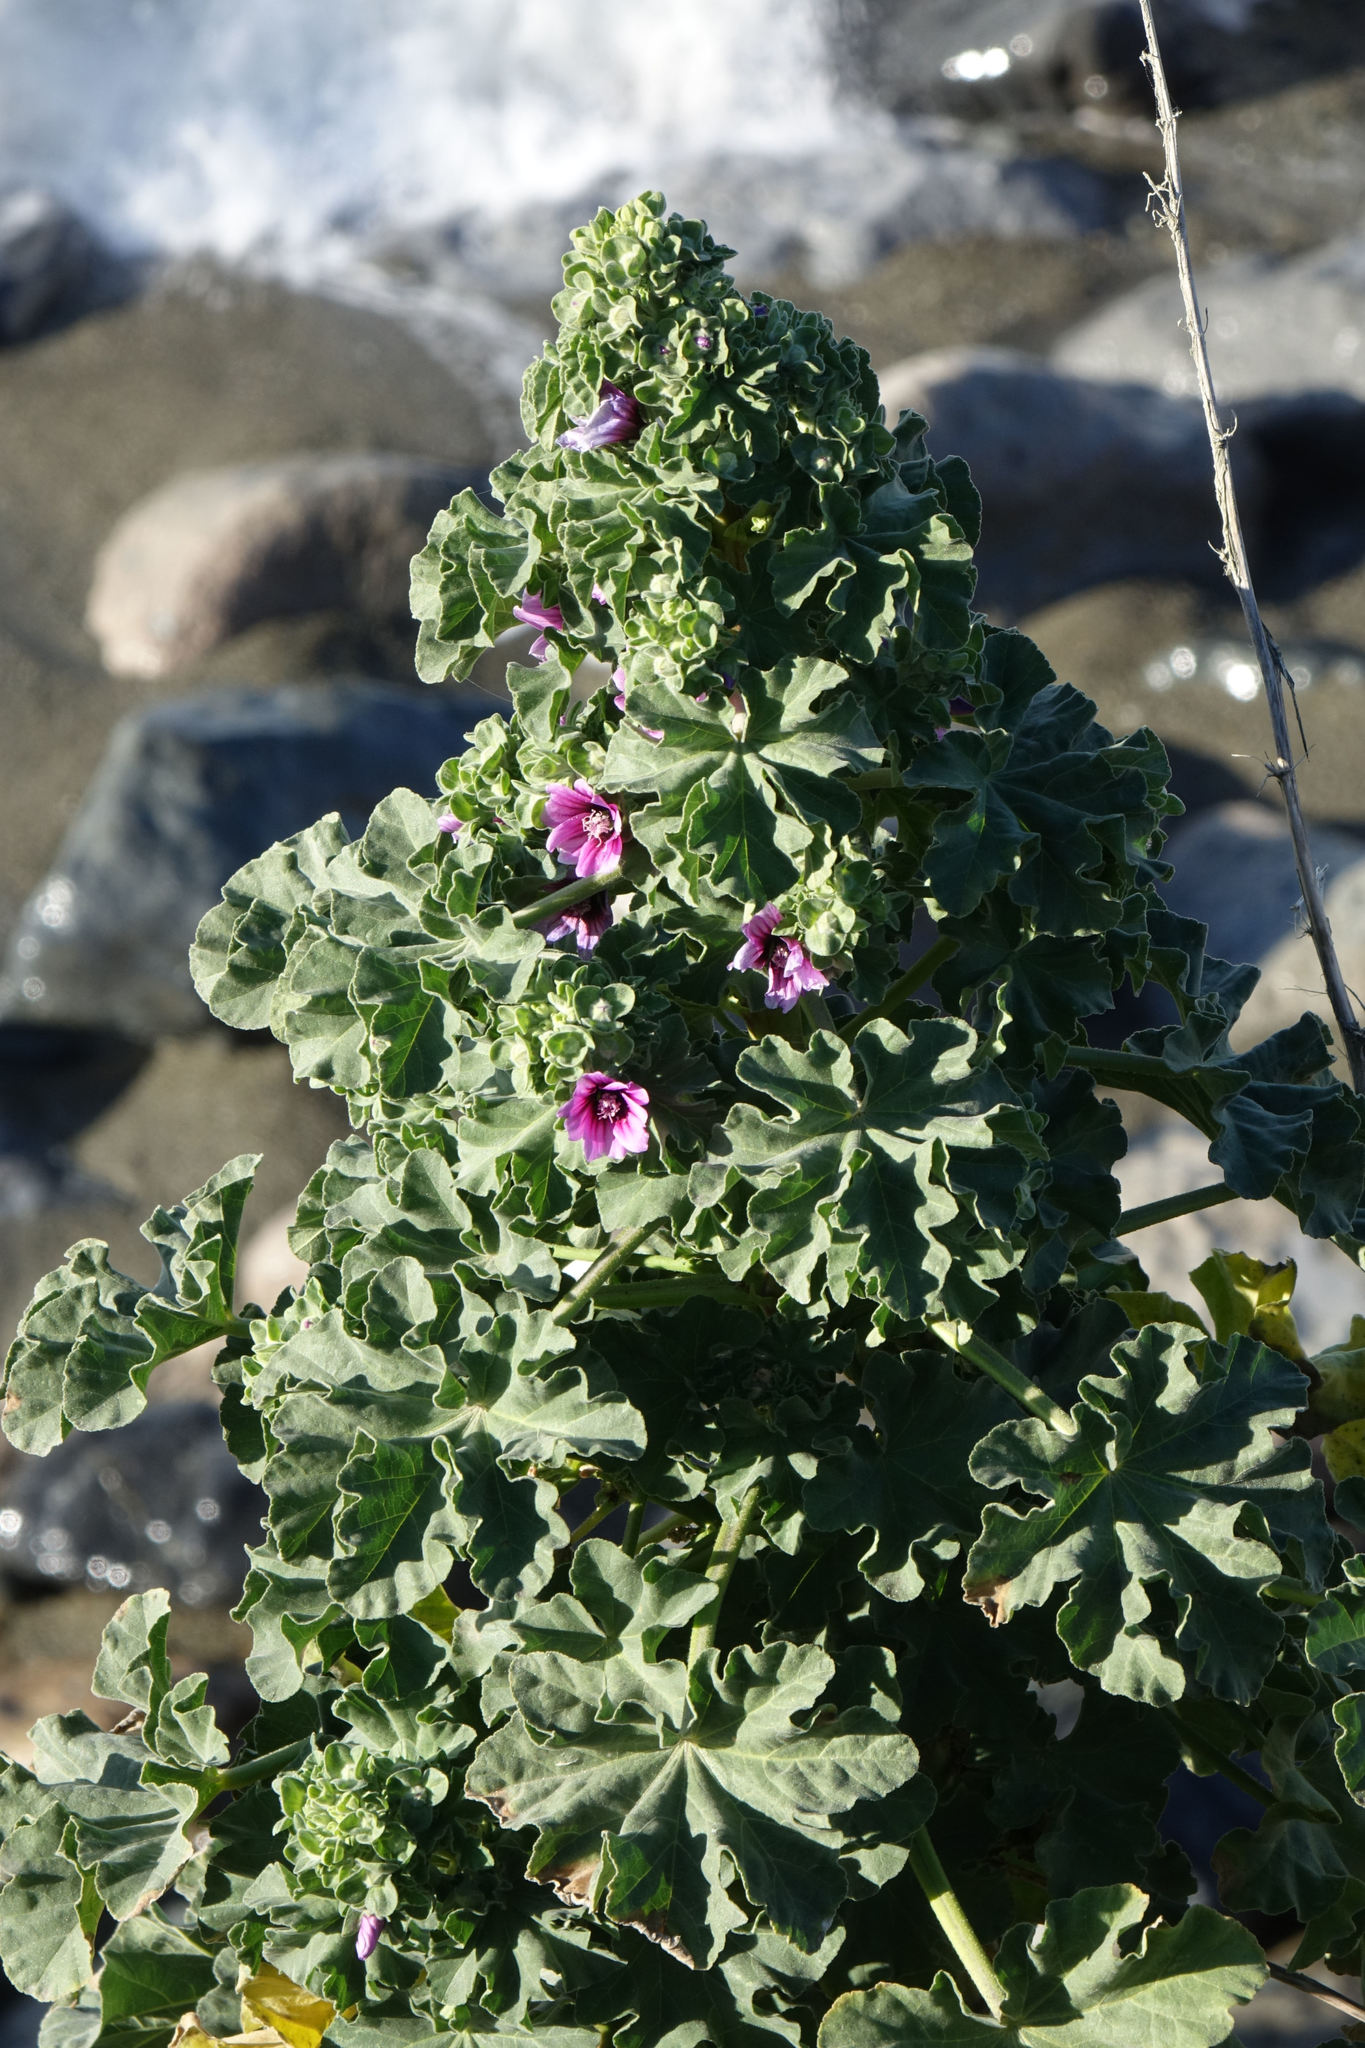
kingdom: Plantae
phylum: Tracheophyta
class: Magnoliopsida
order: Malvales
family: Malvaceae
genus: Malva
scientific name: Malva arborea
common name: Tree mallow
